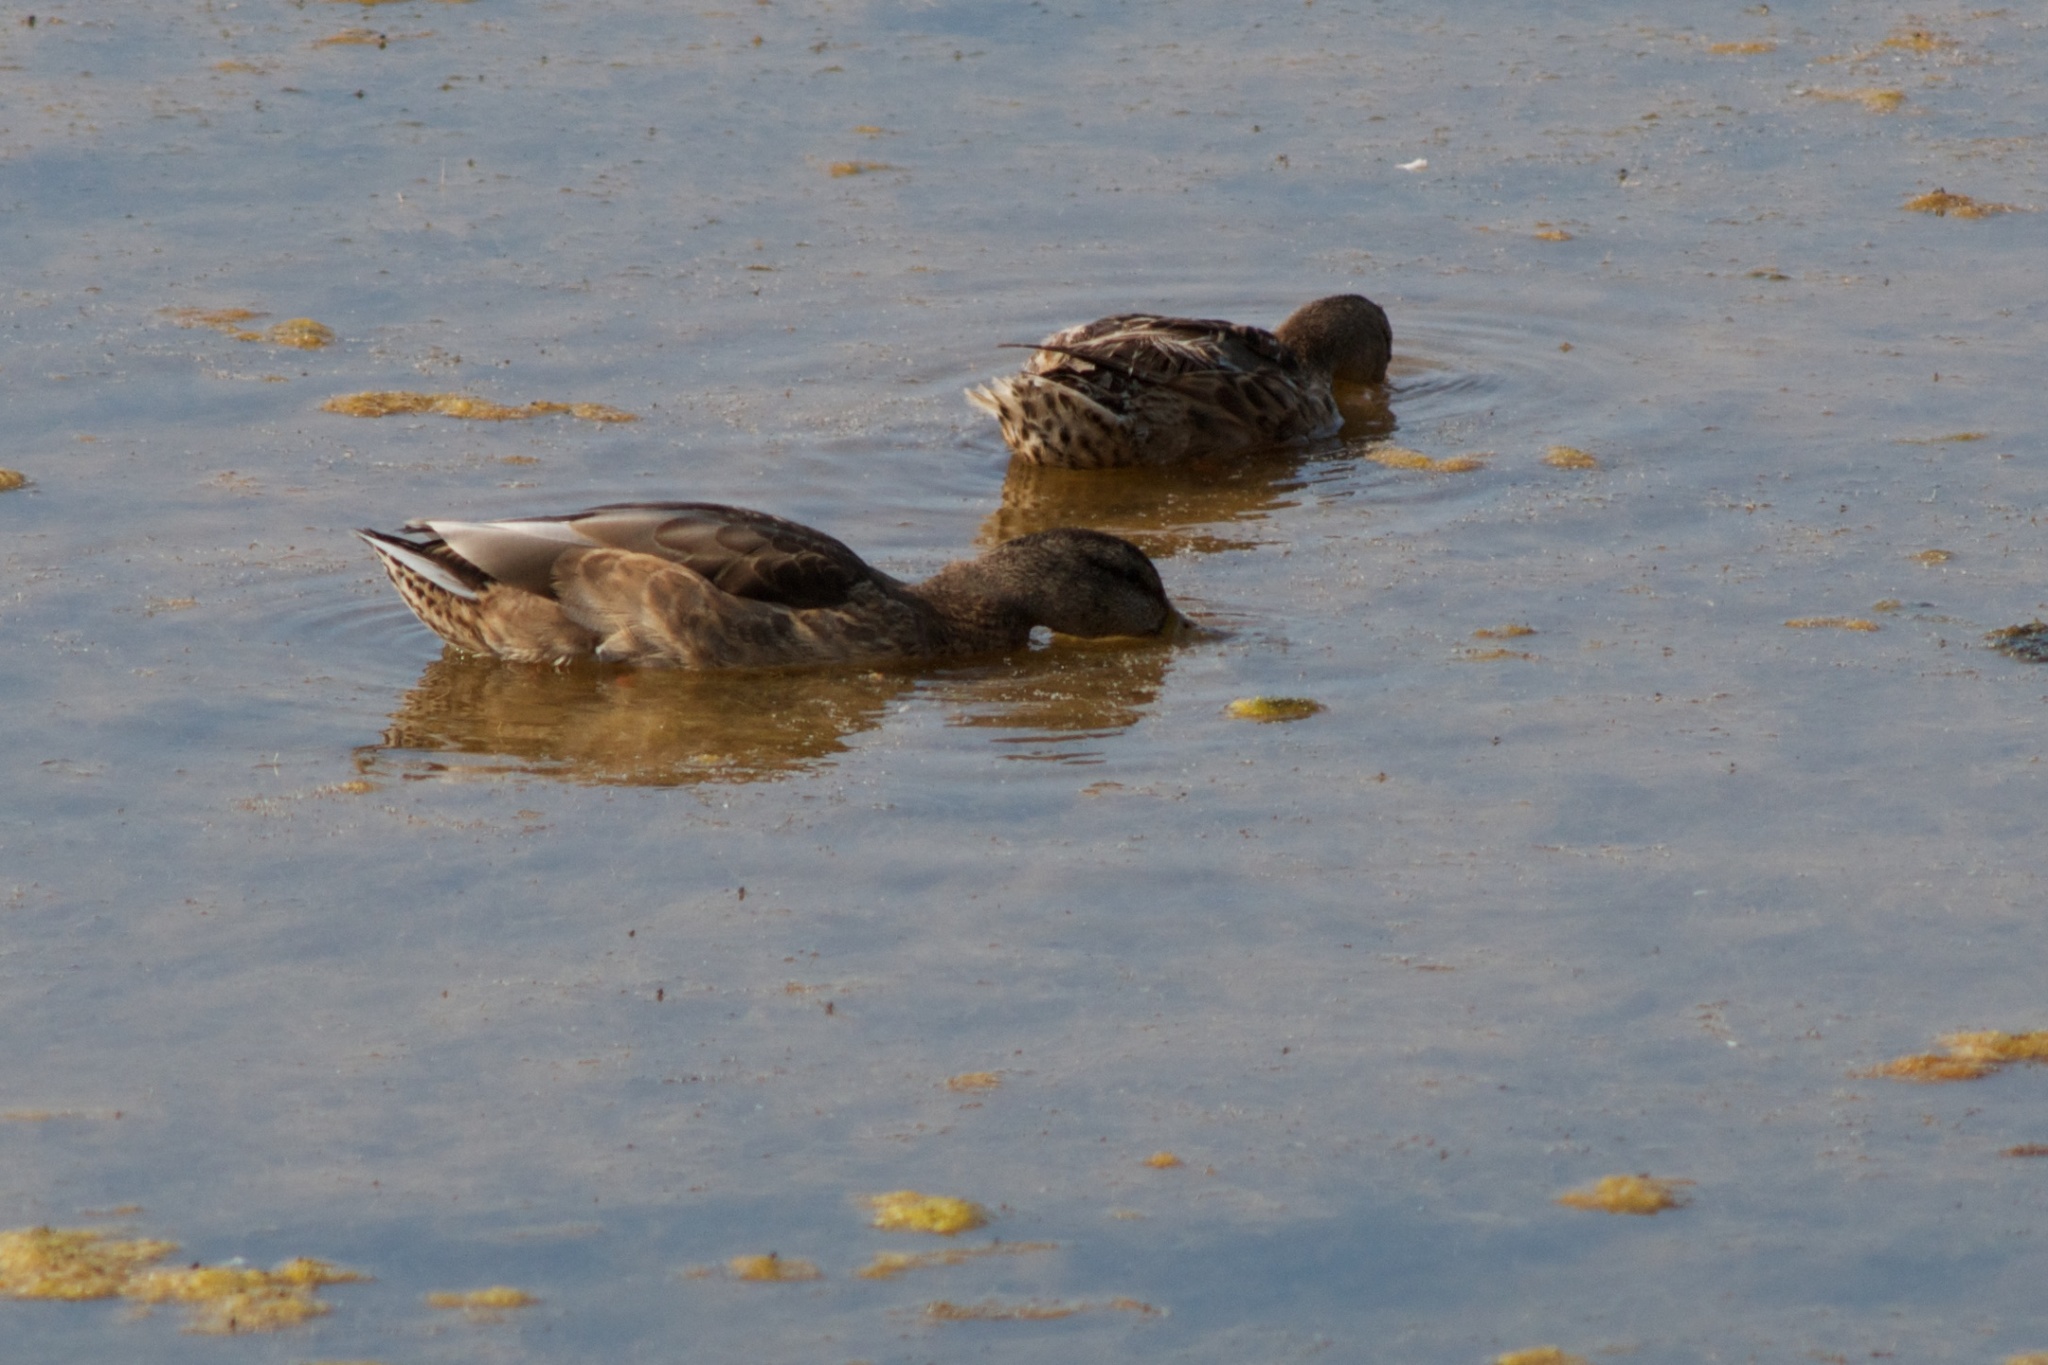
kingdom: Animalia
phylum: Chordata
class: Aves
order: Anseriformes
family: Anatidae
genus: Anas
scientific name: Anas platyrhynchos
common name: Mallard
